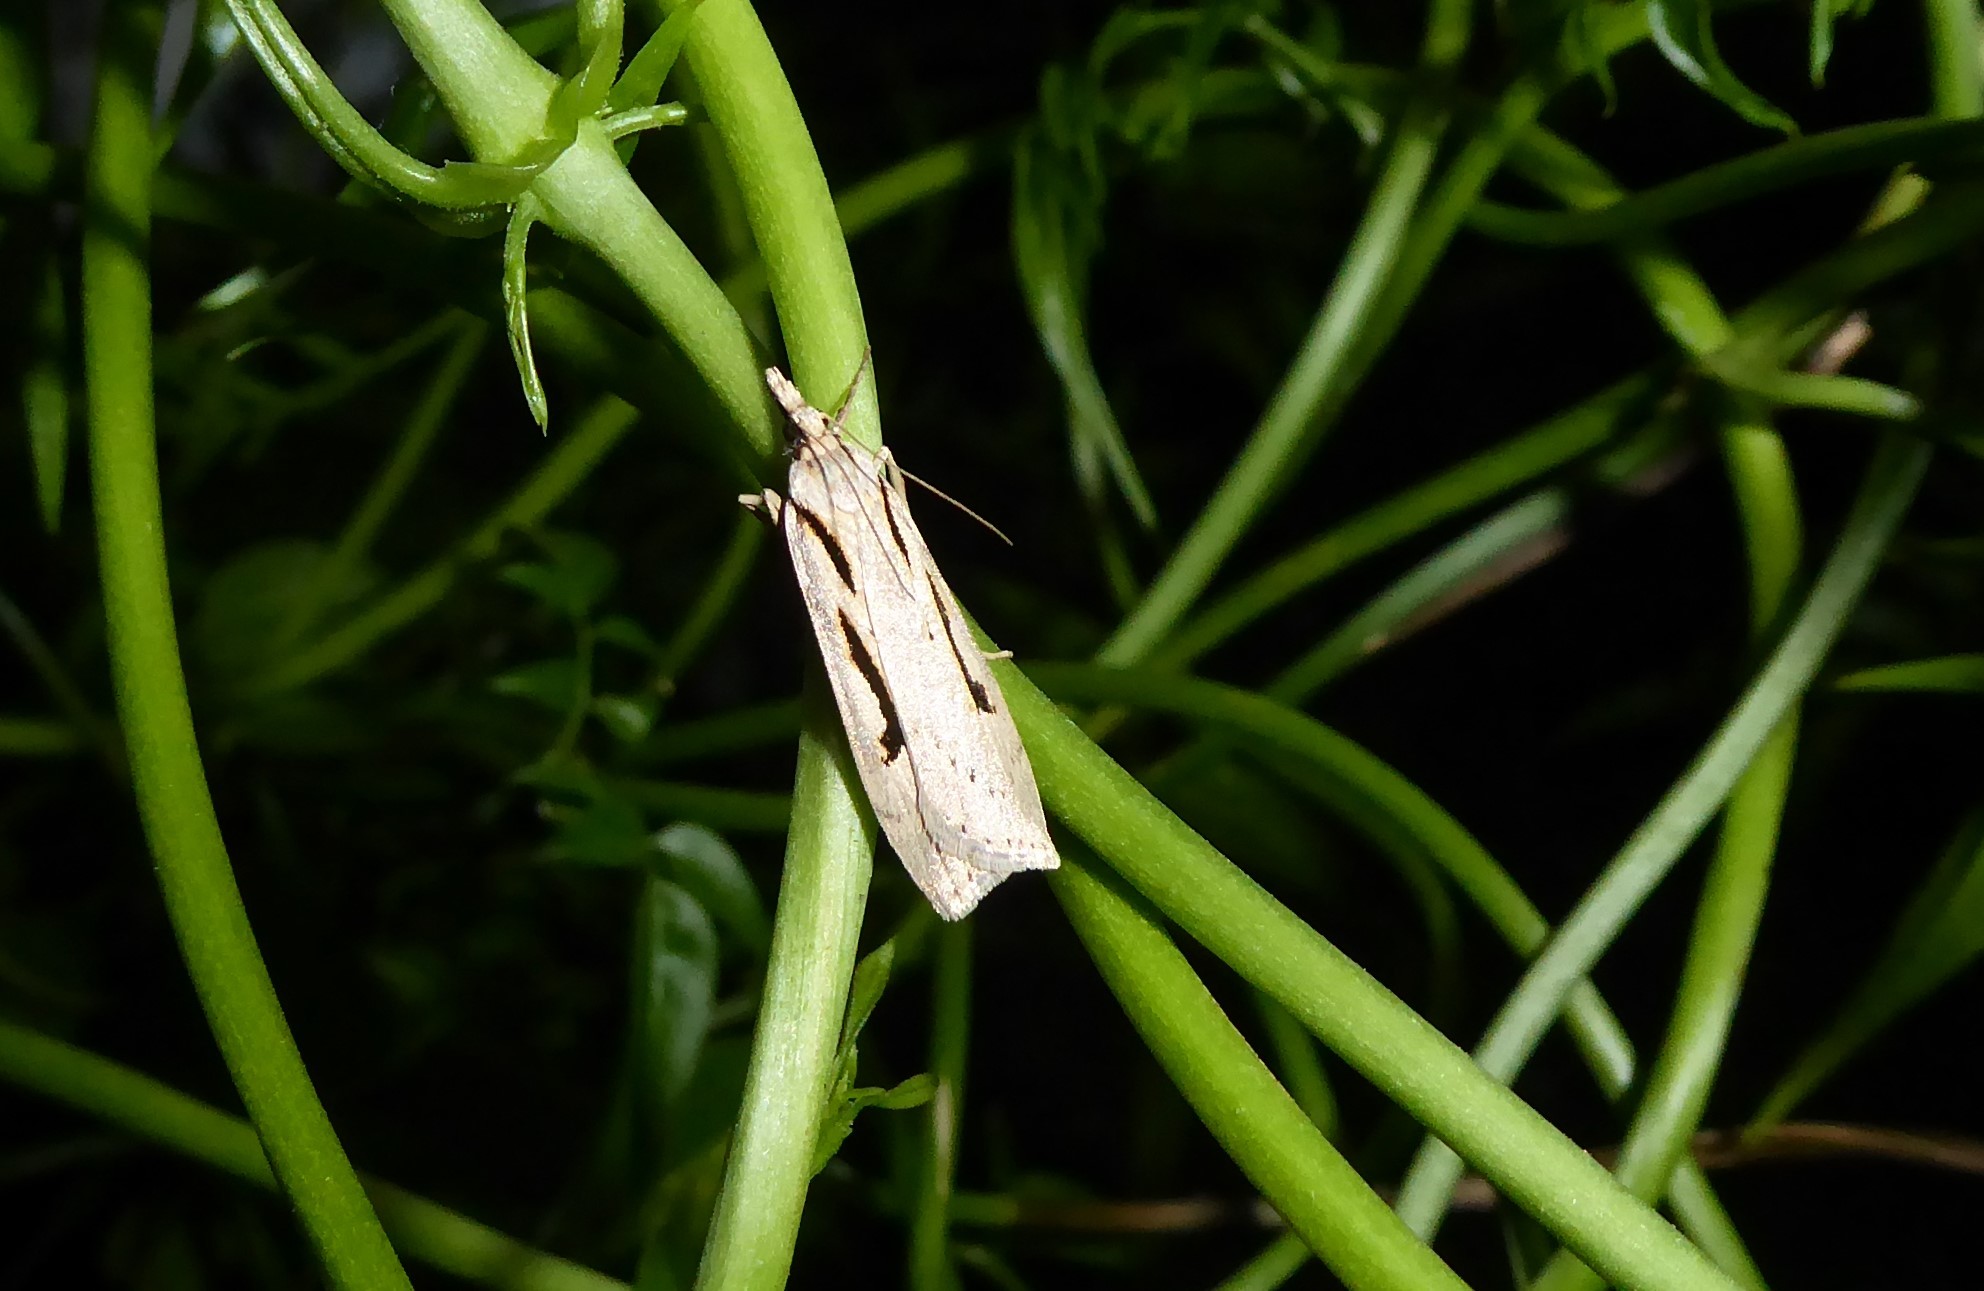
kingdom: Animalia
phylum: Arthropoda
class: Insecta
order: Lepidoptera
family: Crambidae
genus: Scoparia
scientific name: Scoparia rotuellus
